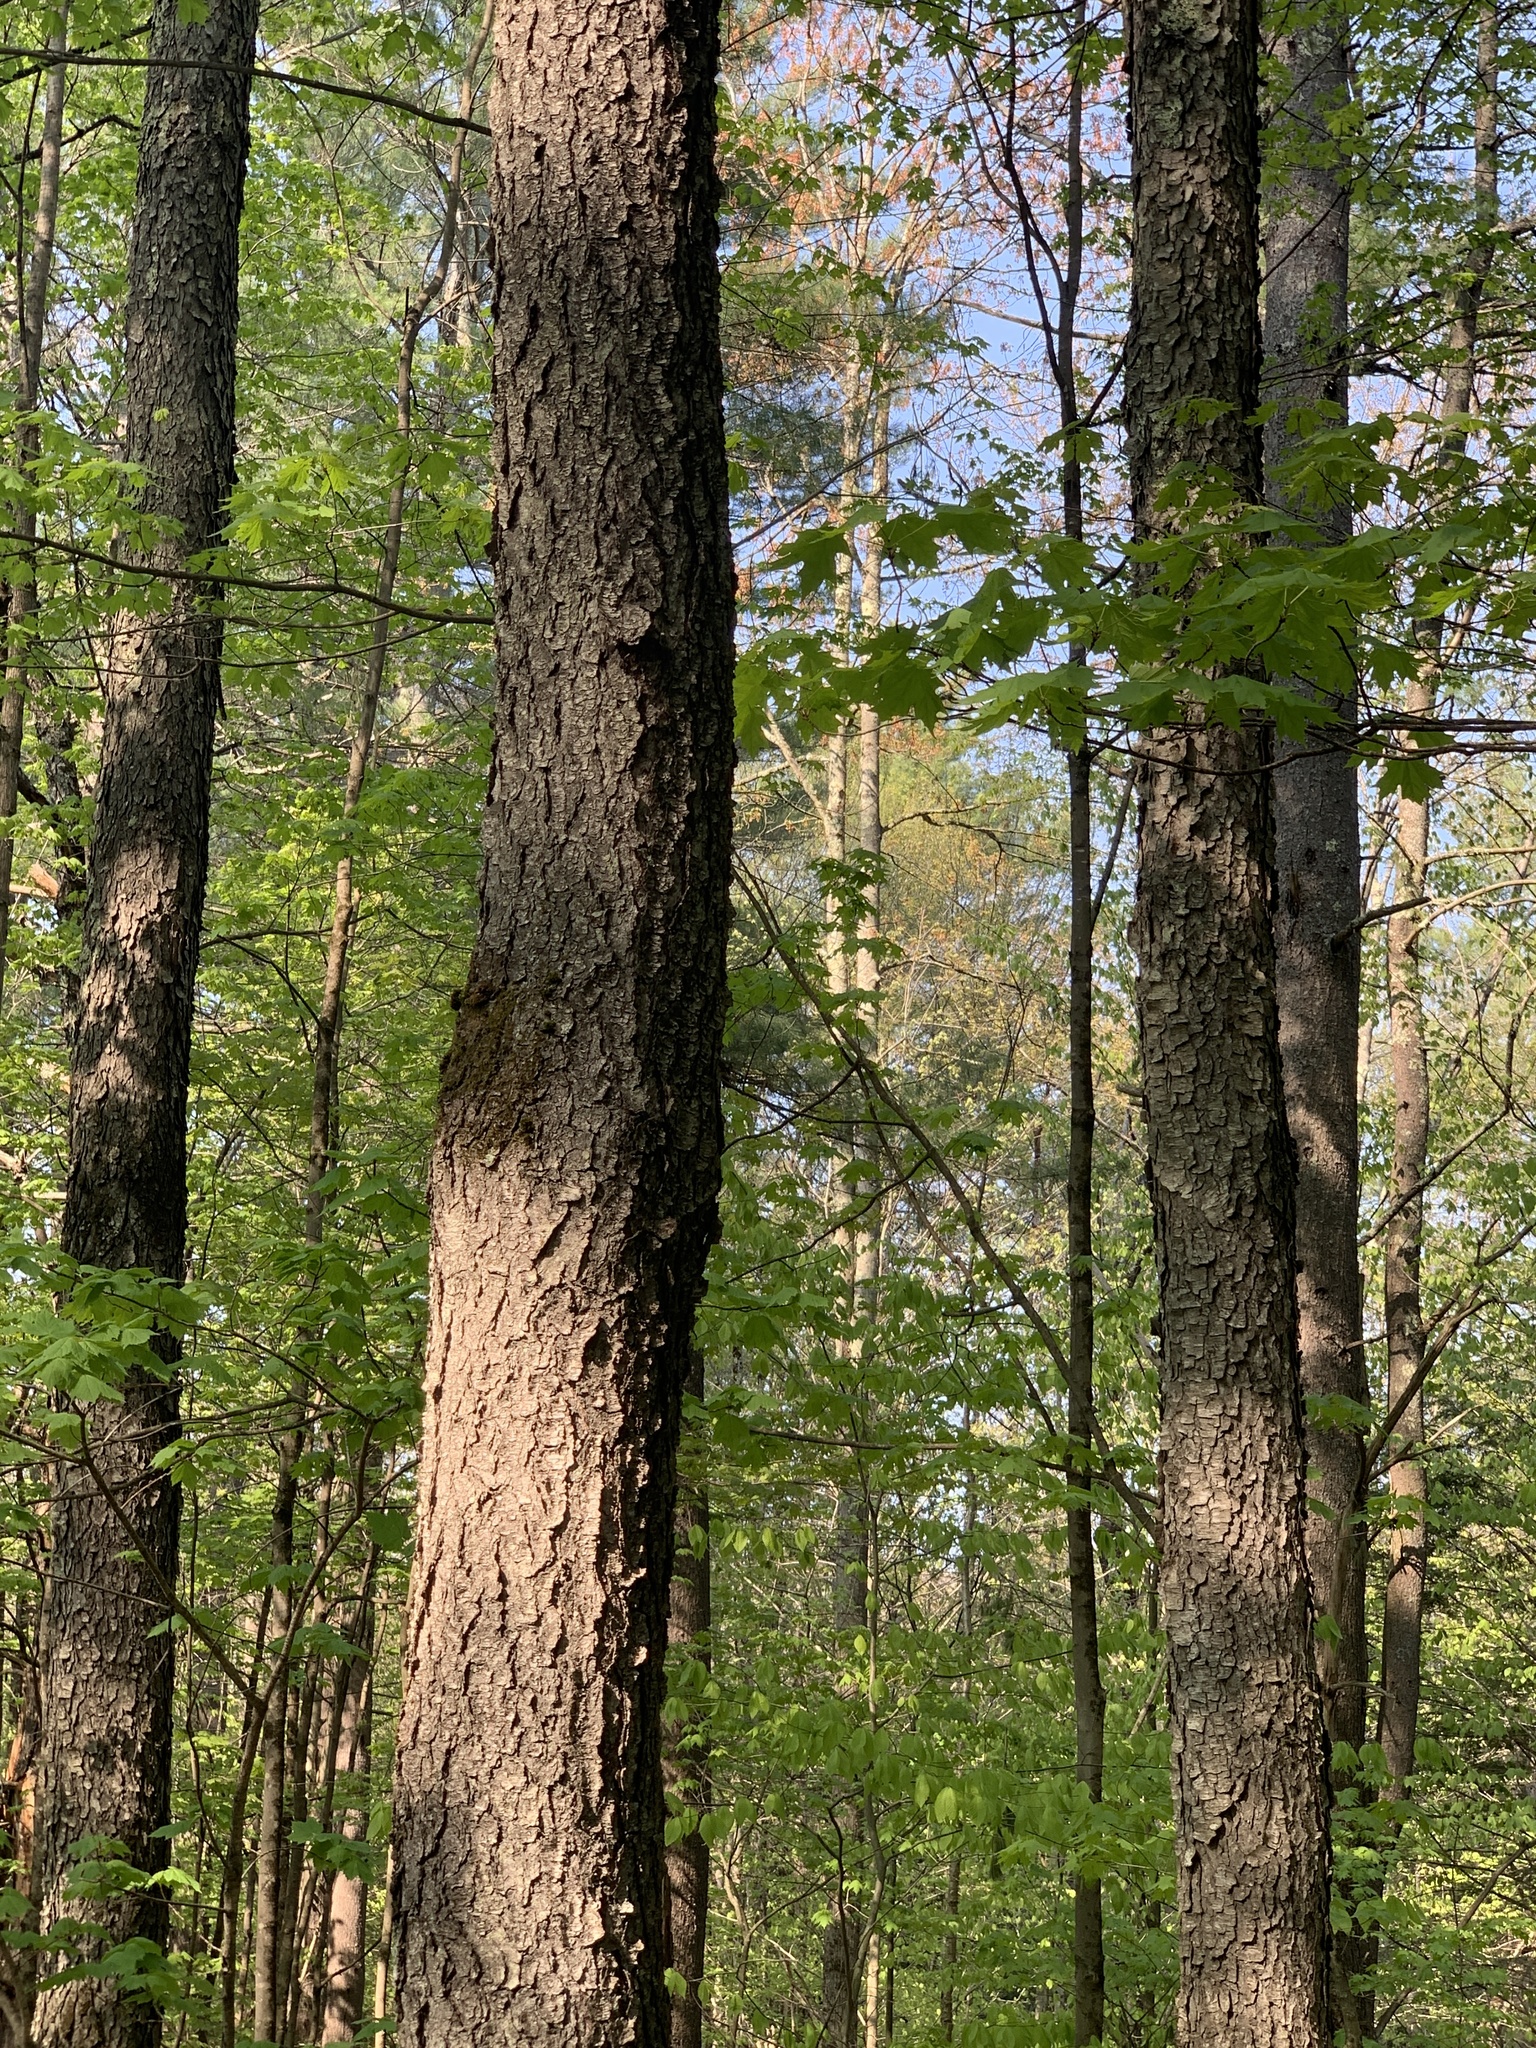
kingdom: Plantae
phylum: Tracheophyta
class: Magnoliopsida
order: Rosales
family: Rosaceae
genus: Prunus
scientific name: Prunus serotina
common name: Black cherry
